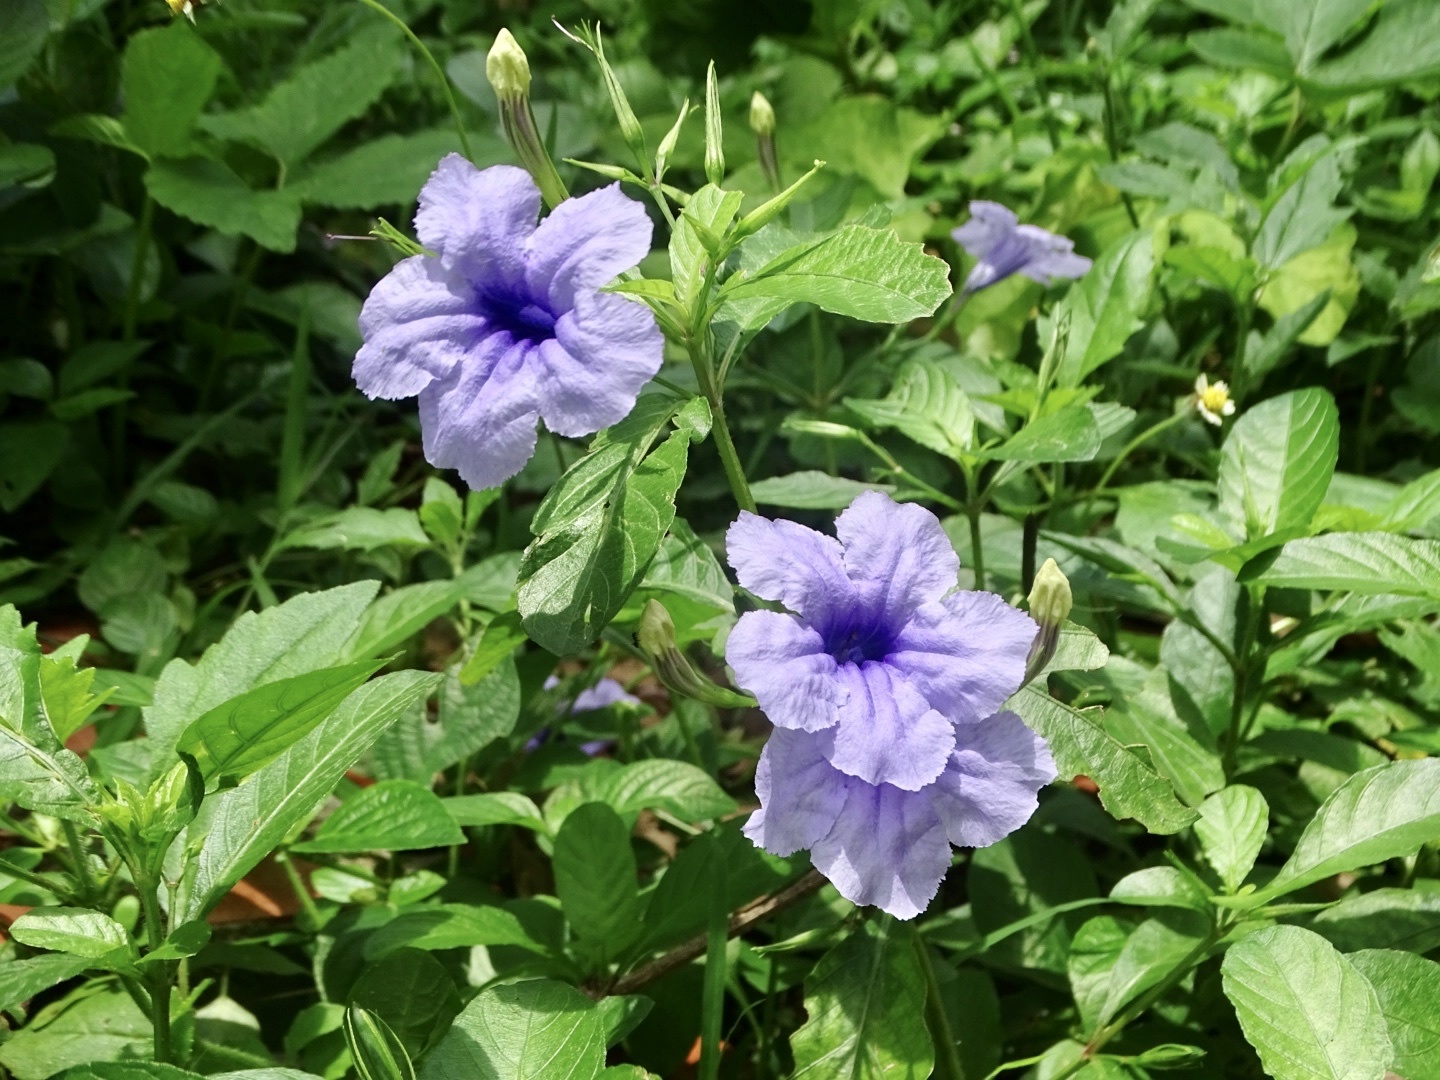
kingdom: Plantae
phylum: Tracheophyta
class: Magnoliopsida
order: Lamiales
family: Acanthaceae
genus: Ruellia
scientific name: Ruellia tuberosa
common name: Devil's bit
